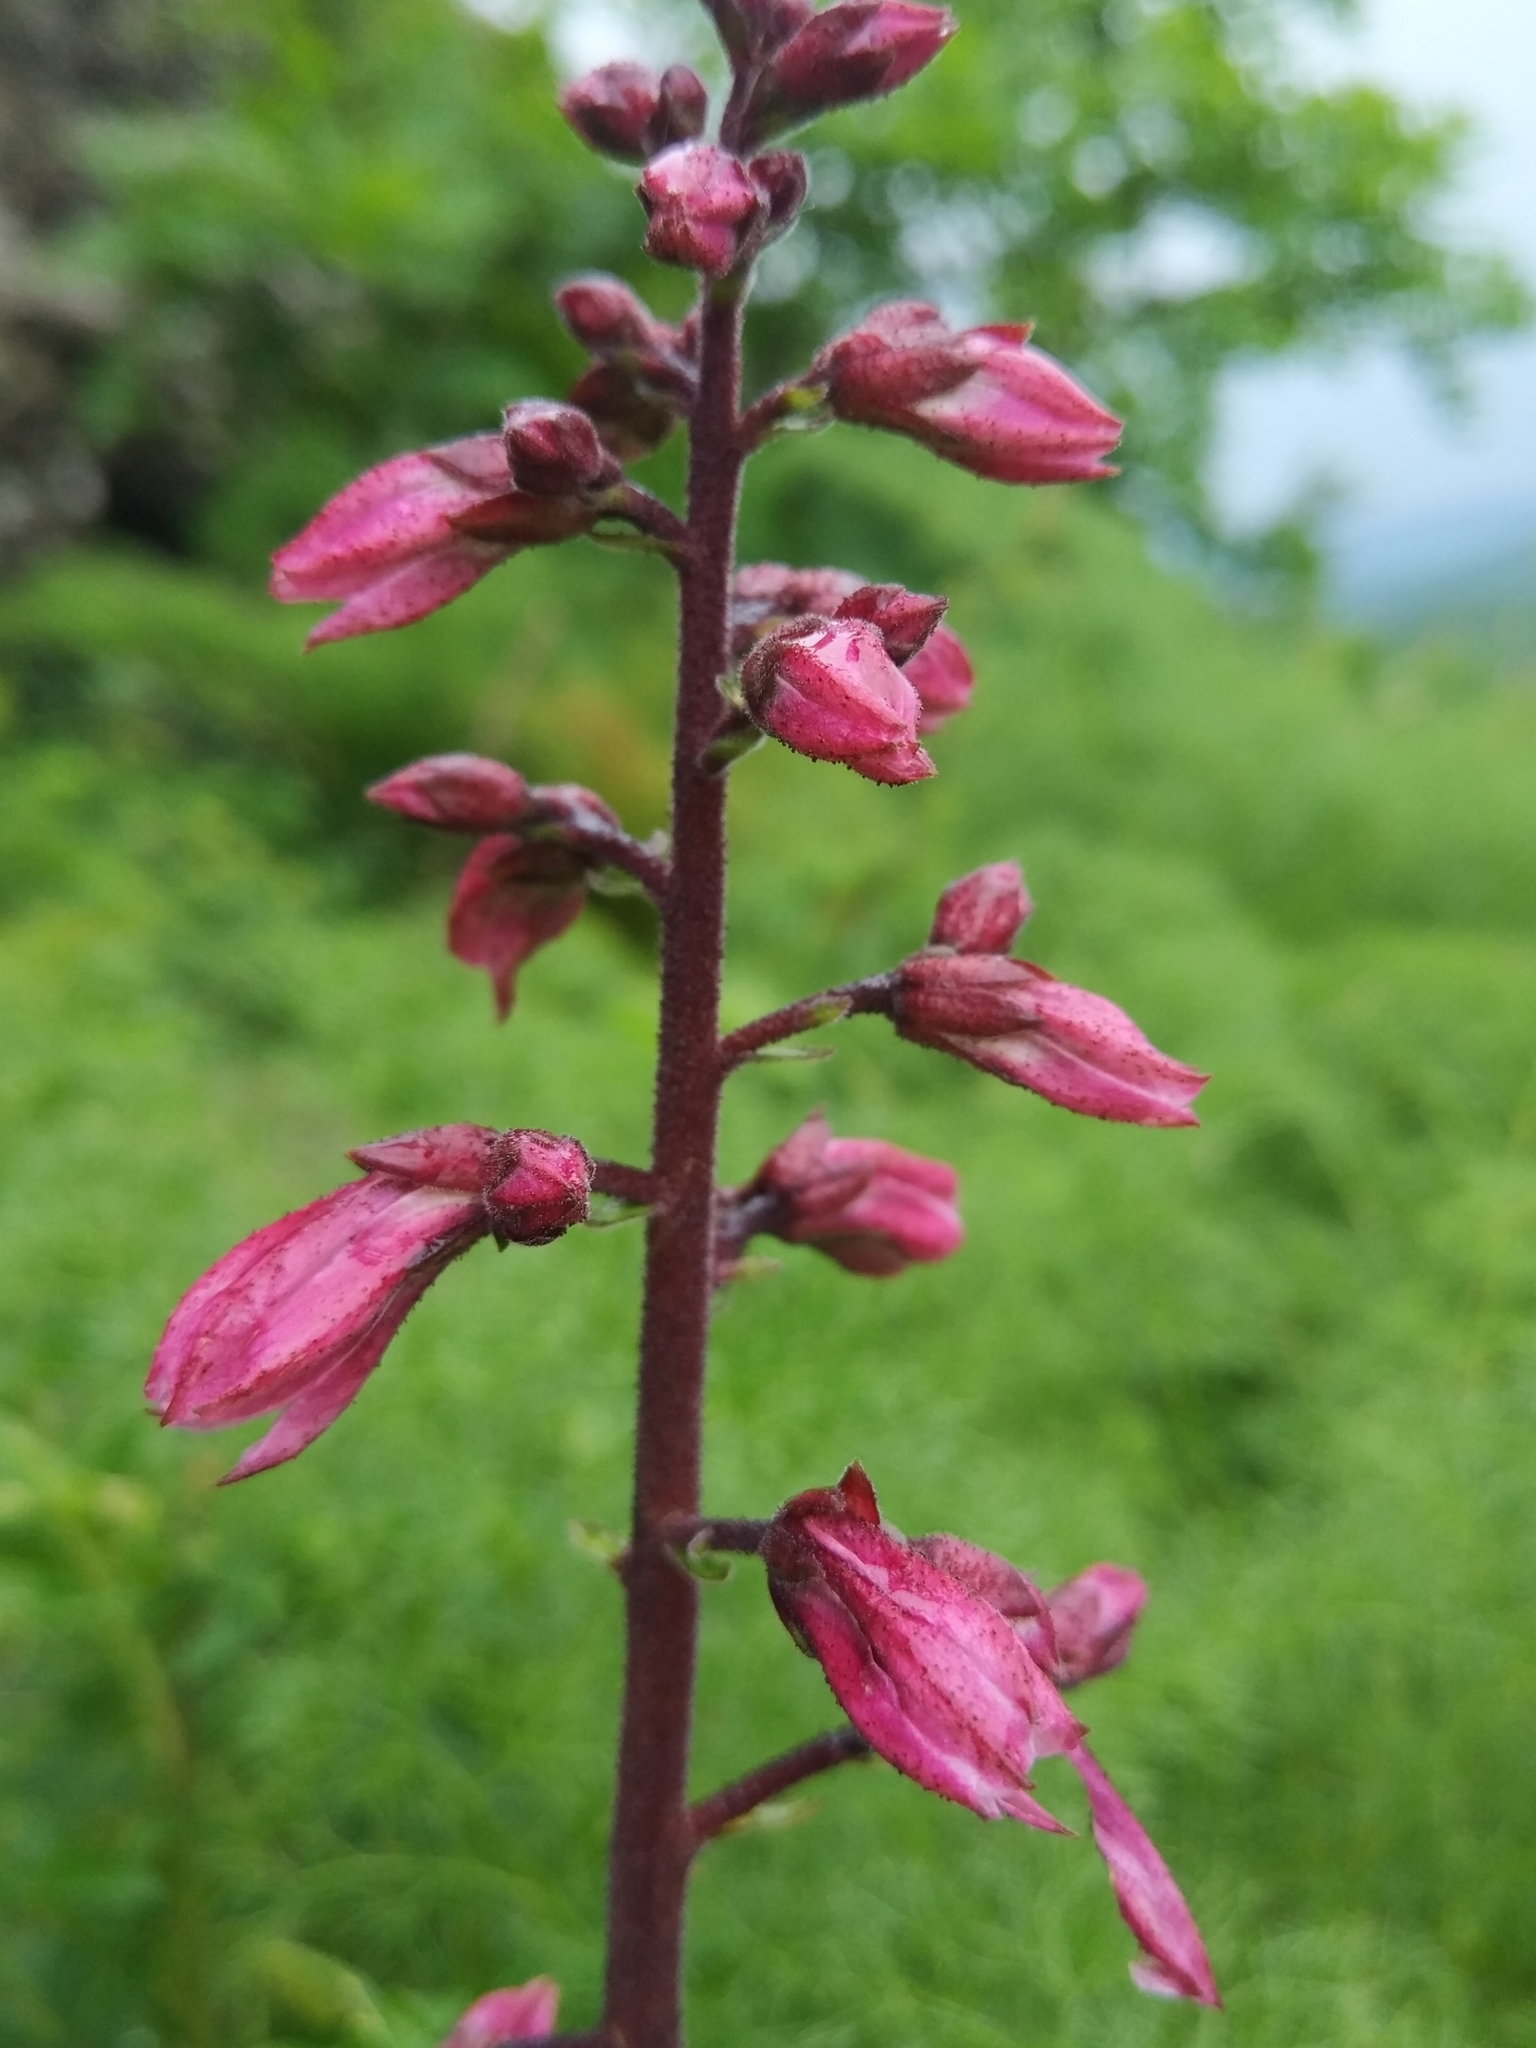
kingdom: Plantae
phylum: Tracheophyta
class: Magnoliopsida
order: Sapindales
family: Rutaceae
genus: Dictamnus
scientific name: Dictamnus albus
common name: Gasplant
